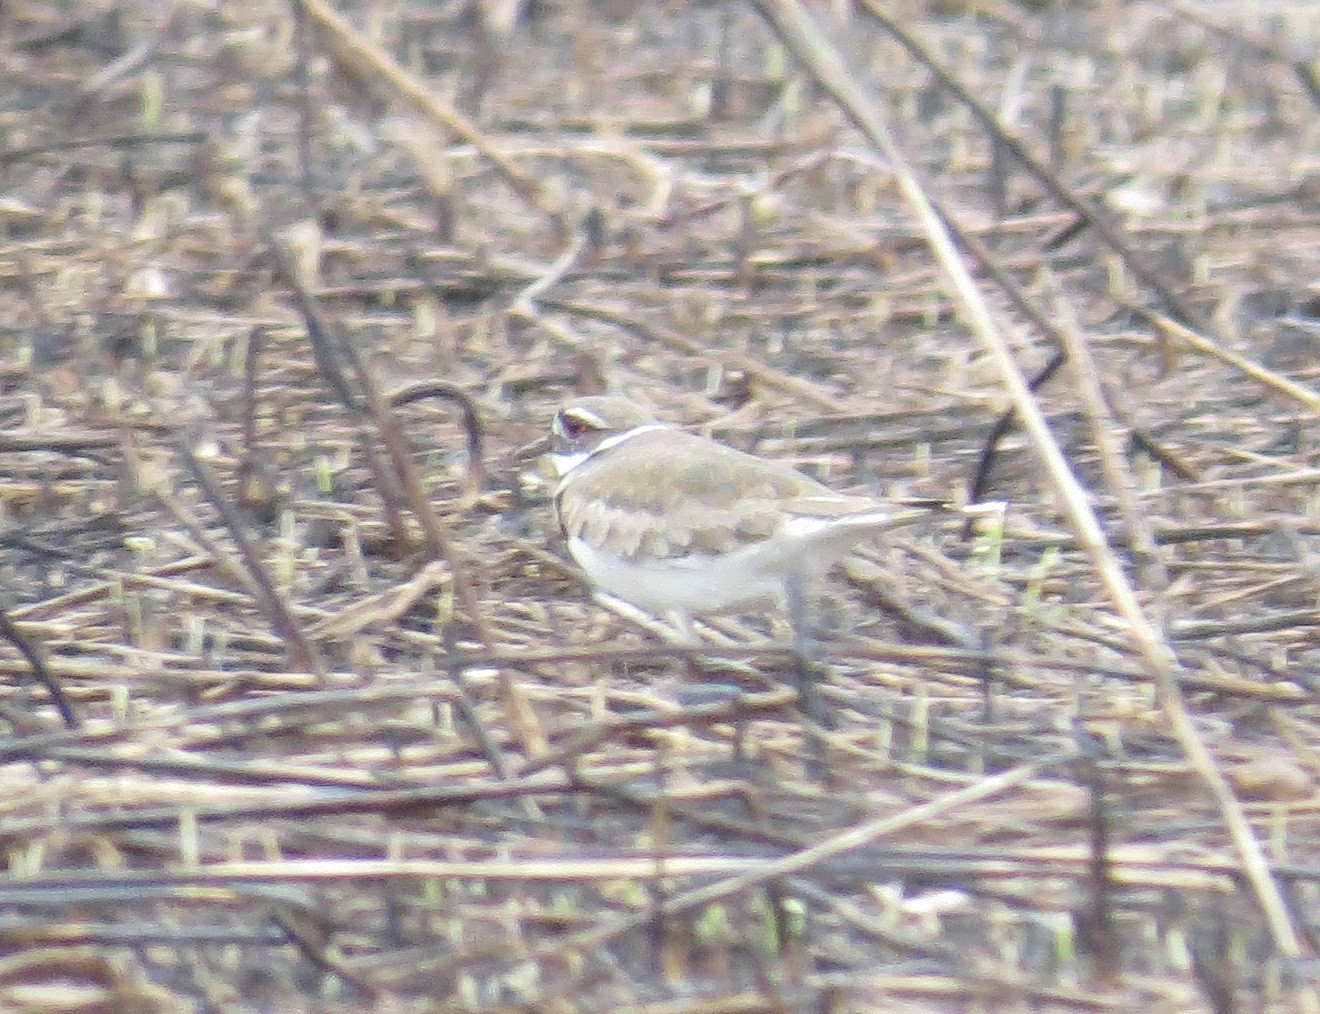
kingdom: Animalia
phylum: Chordata
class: Aves
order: Charadriiformes
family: Charadriidae
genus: Charadrius
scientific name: Charadrius vociferus
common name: Killdeer
